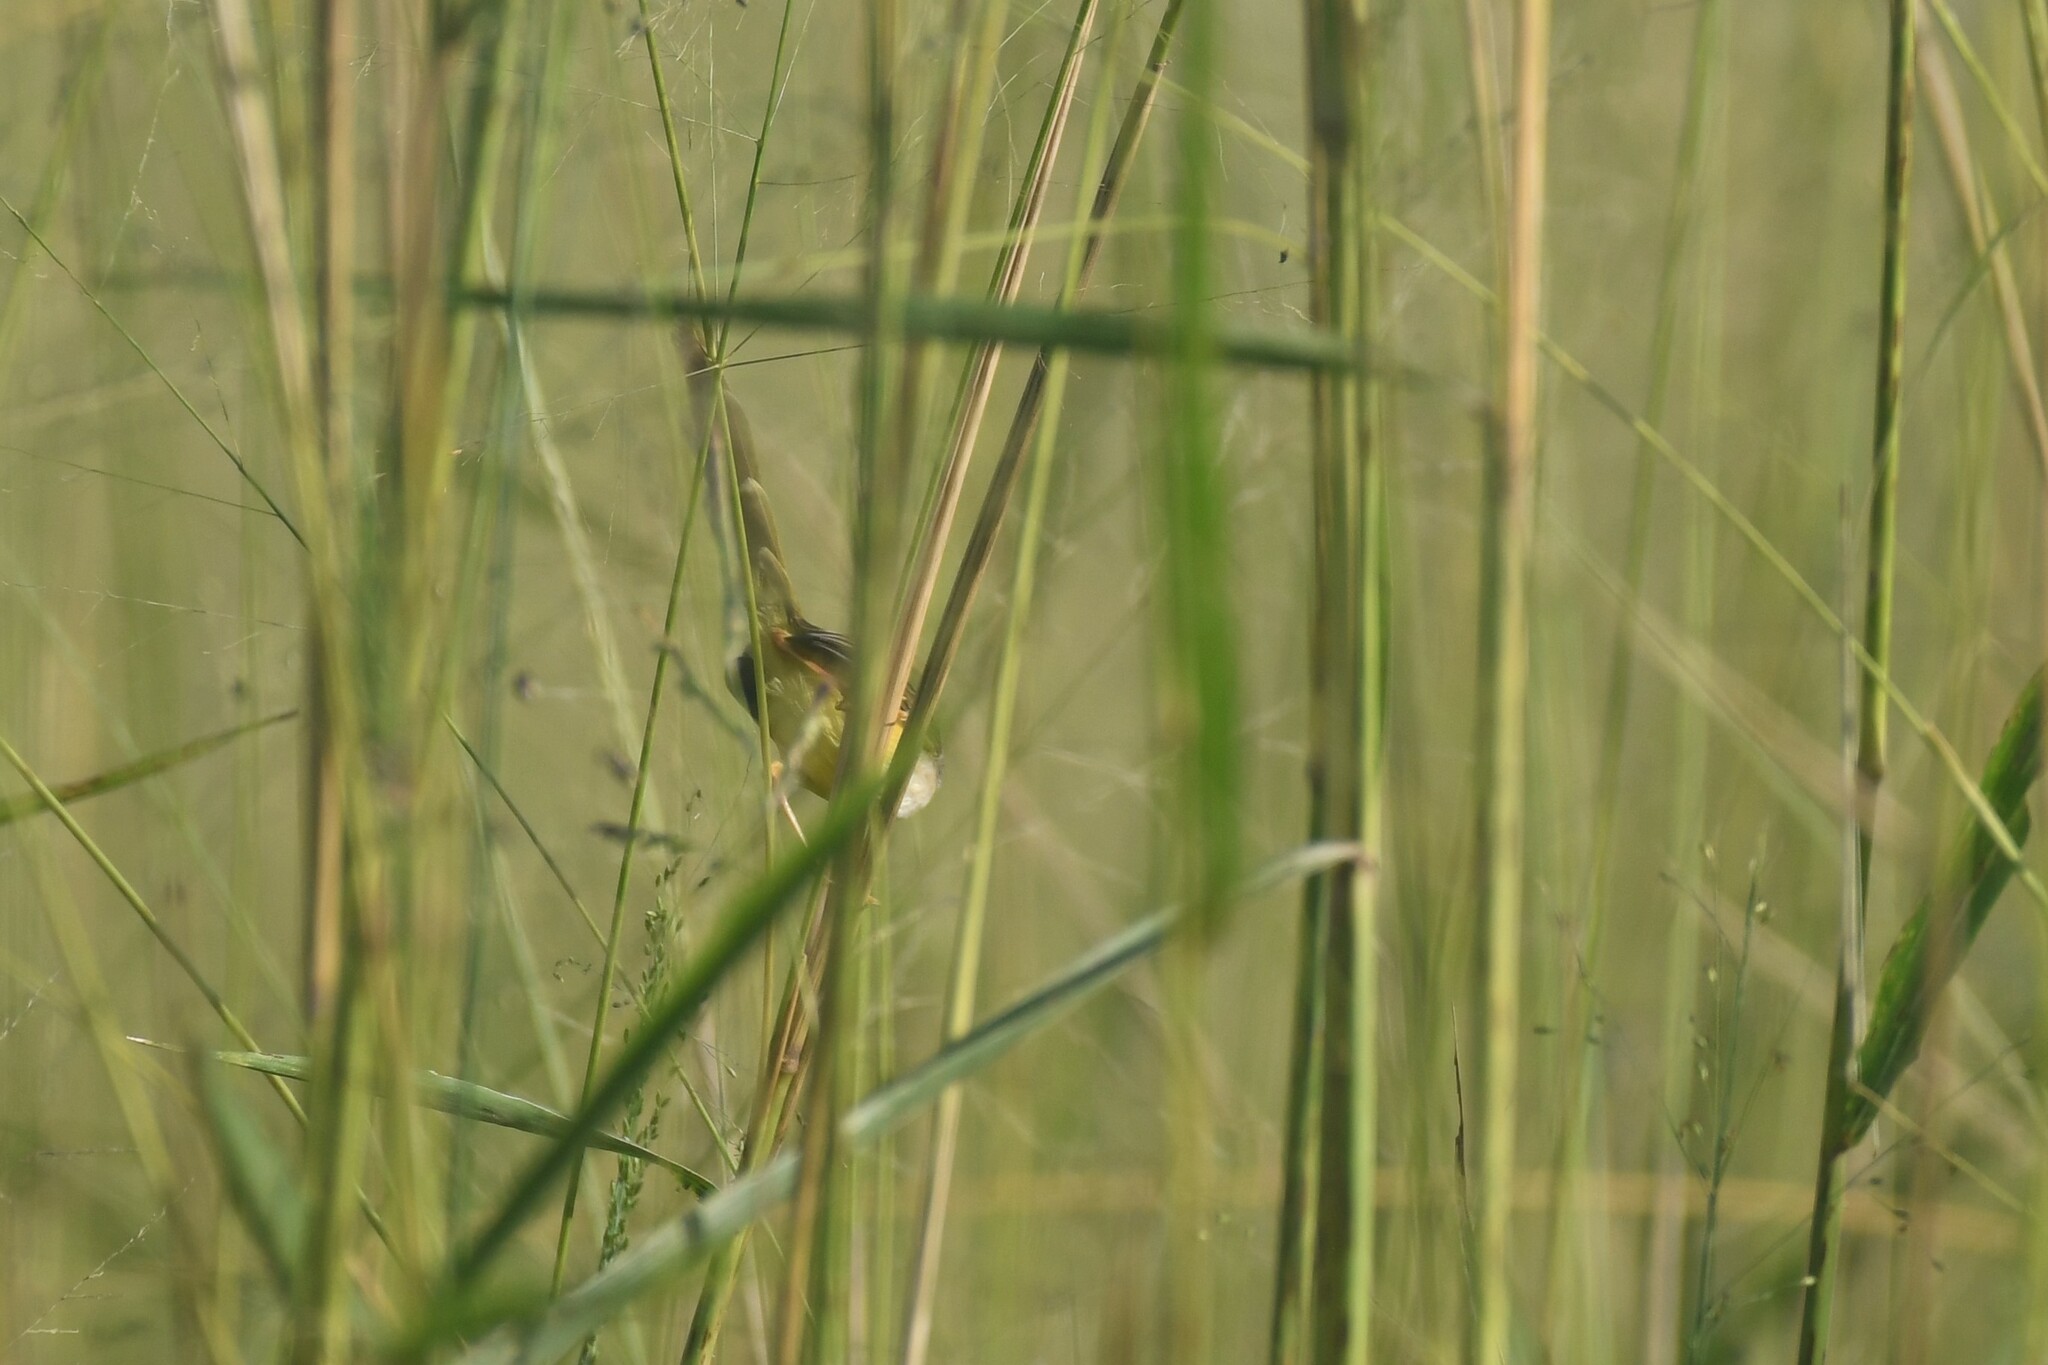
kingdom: Animalia
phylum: Chordata
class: Aves
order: Passeriformes
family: Cisticolidae
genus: Prinia
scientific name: Prinia flaviventris
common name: Yellow-bellied prinia
